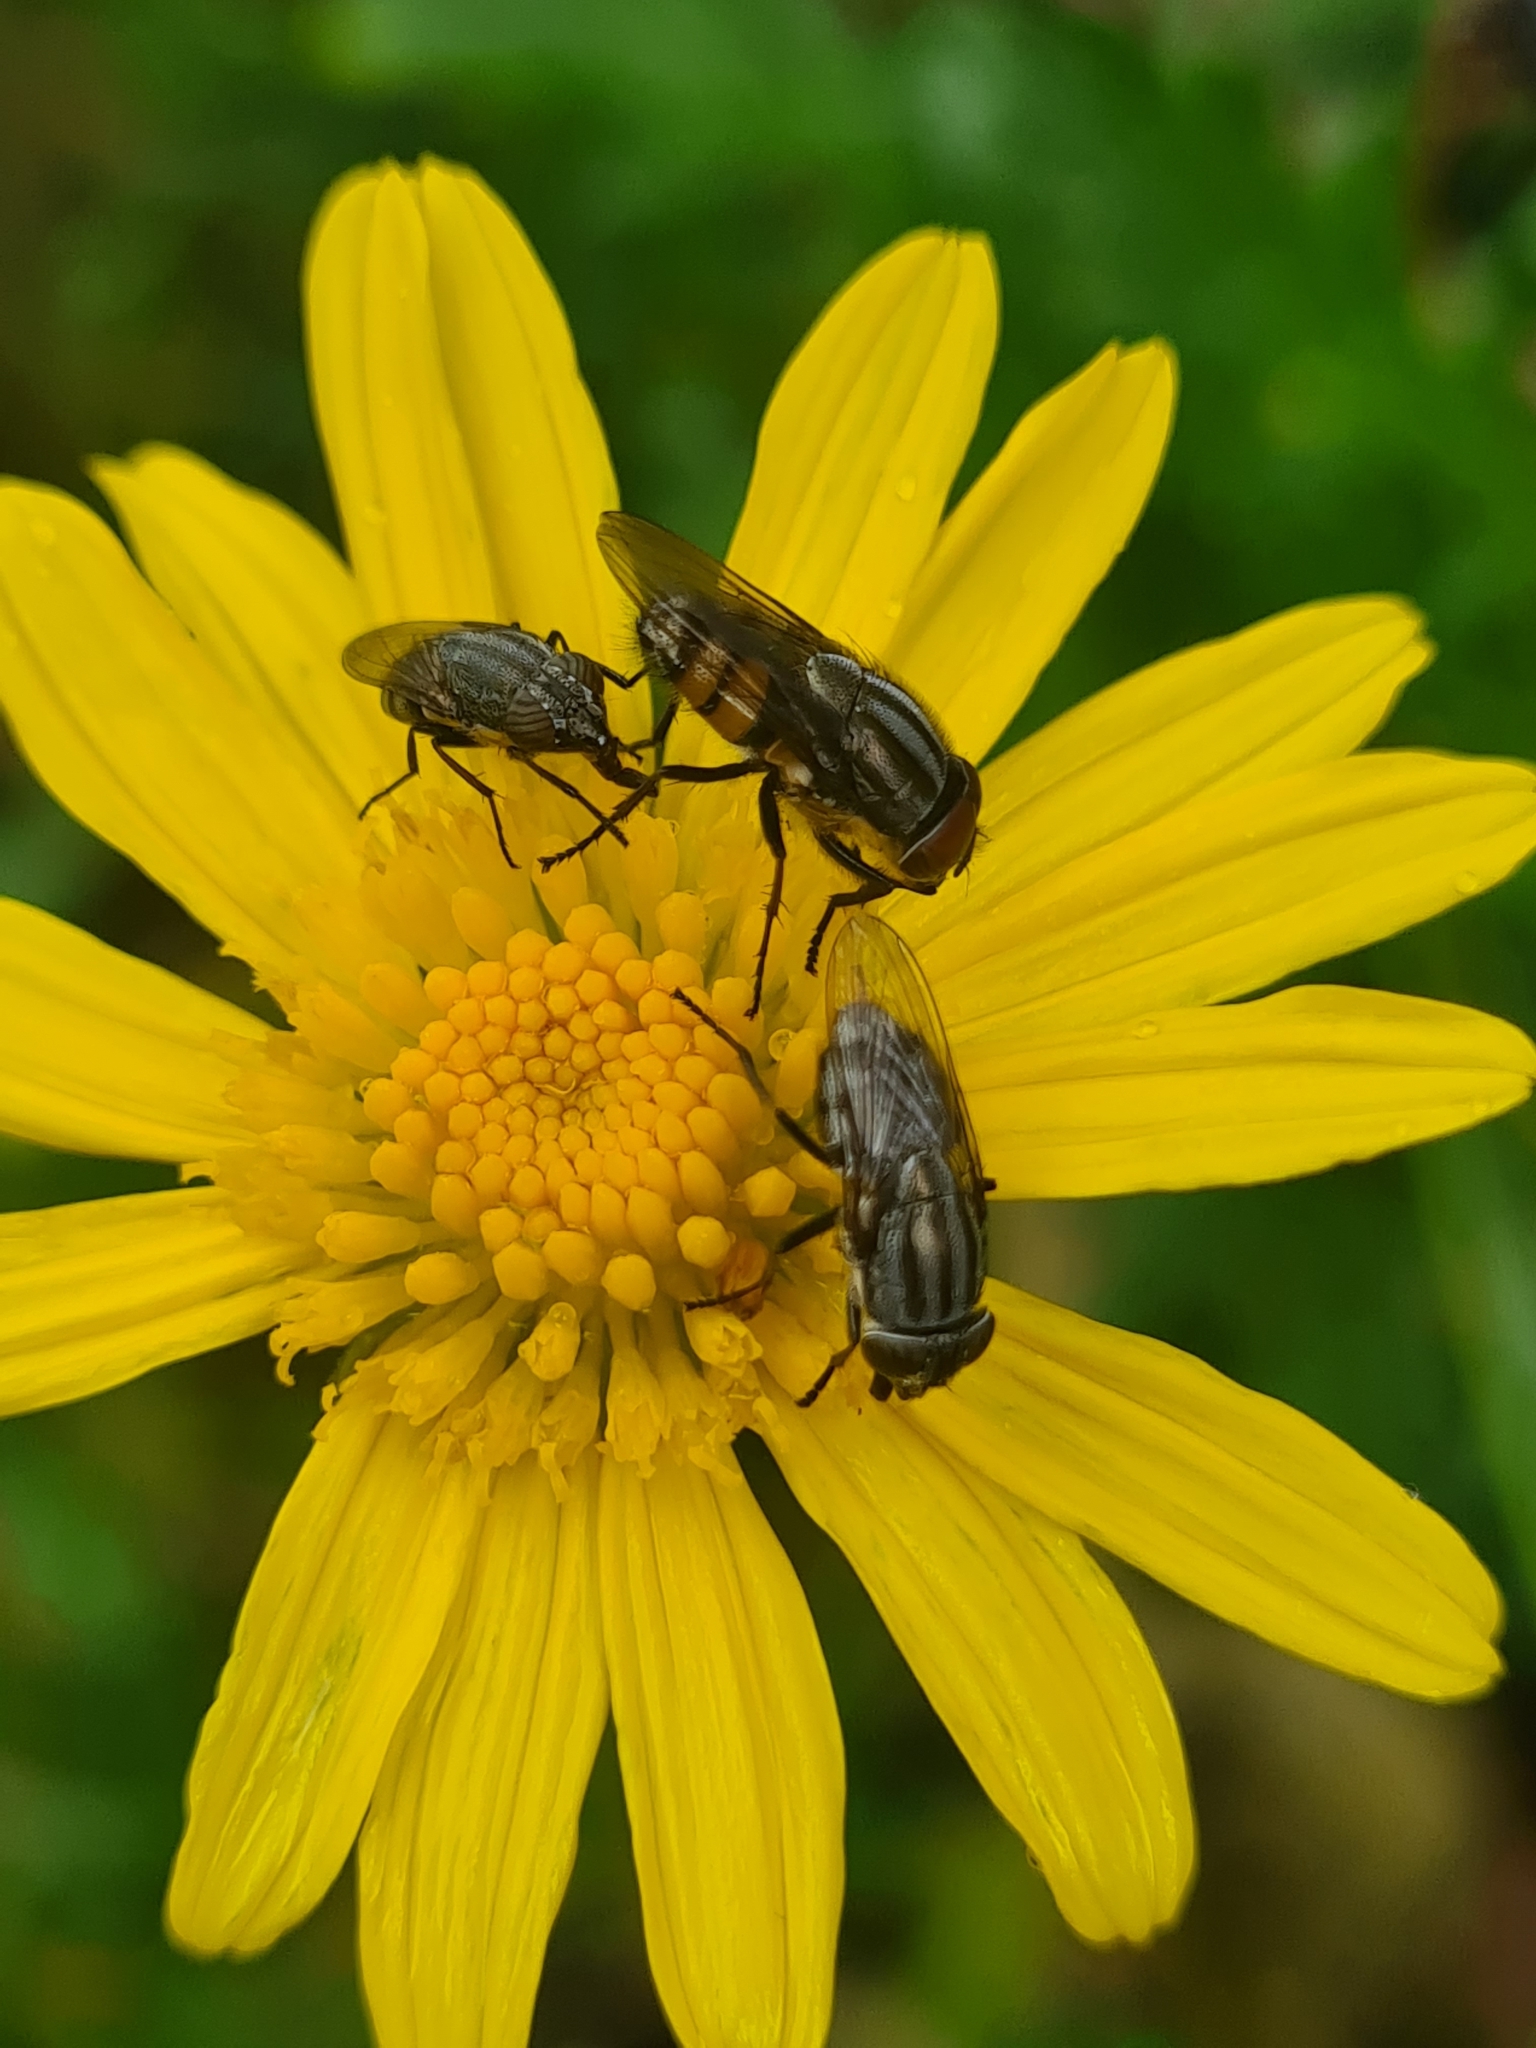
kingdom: Animalia
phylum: Arthropoda
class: Insecta
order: Diptera
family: Calliphoridae
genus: Stomorhina
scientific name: Stomorhina lunata
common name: Locust blowfly
